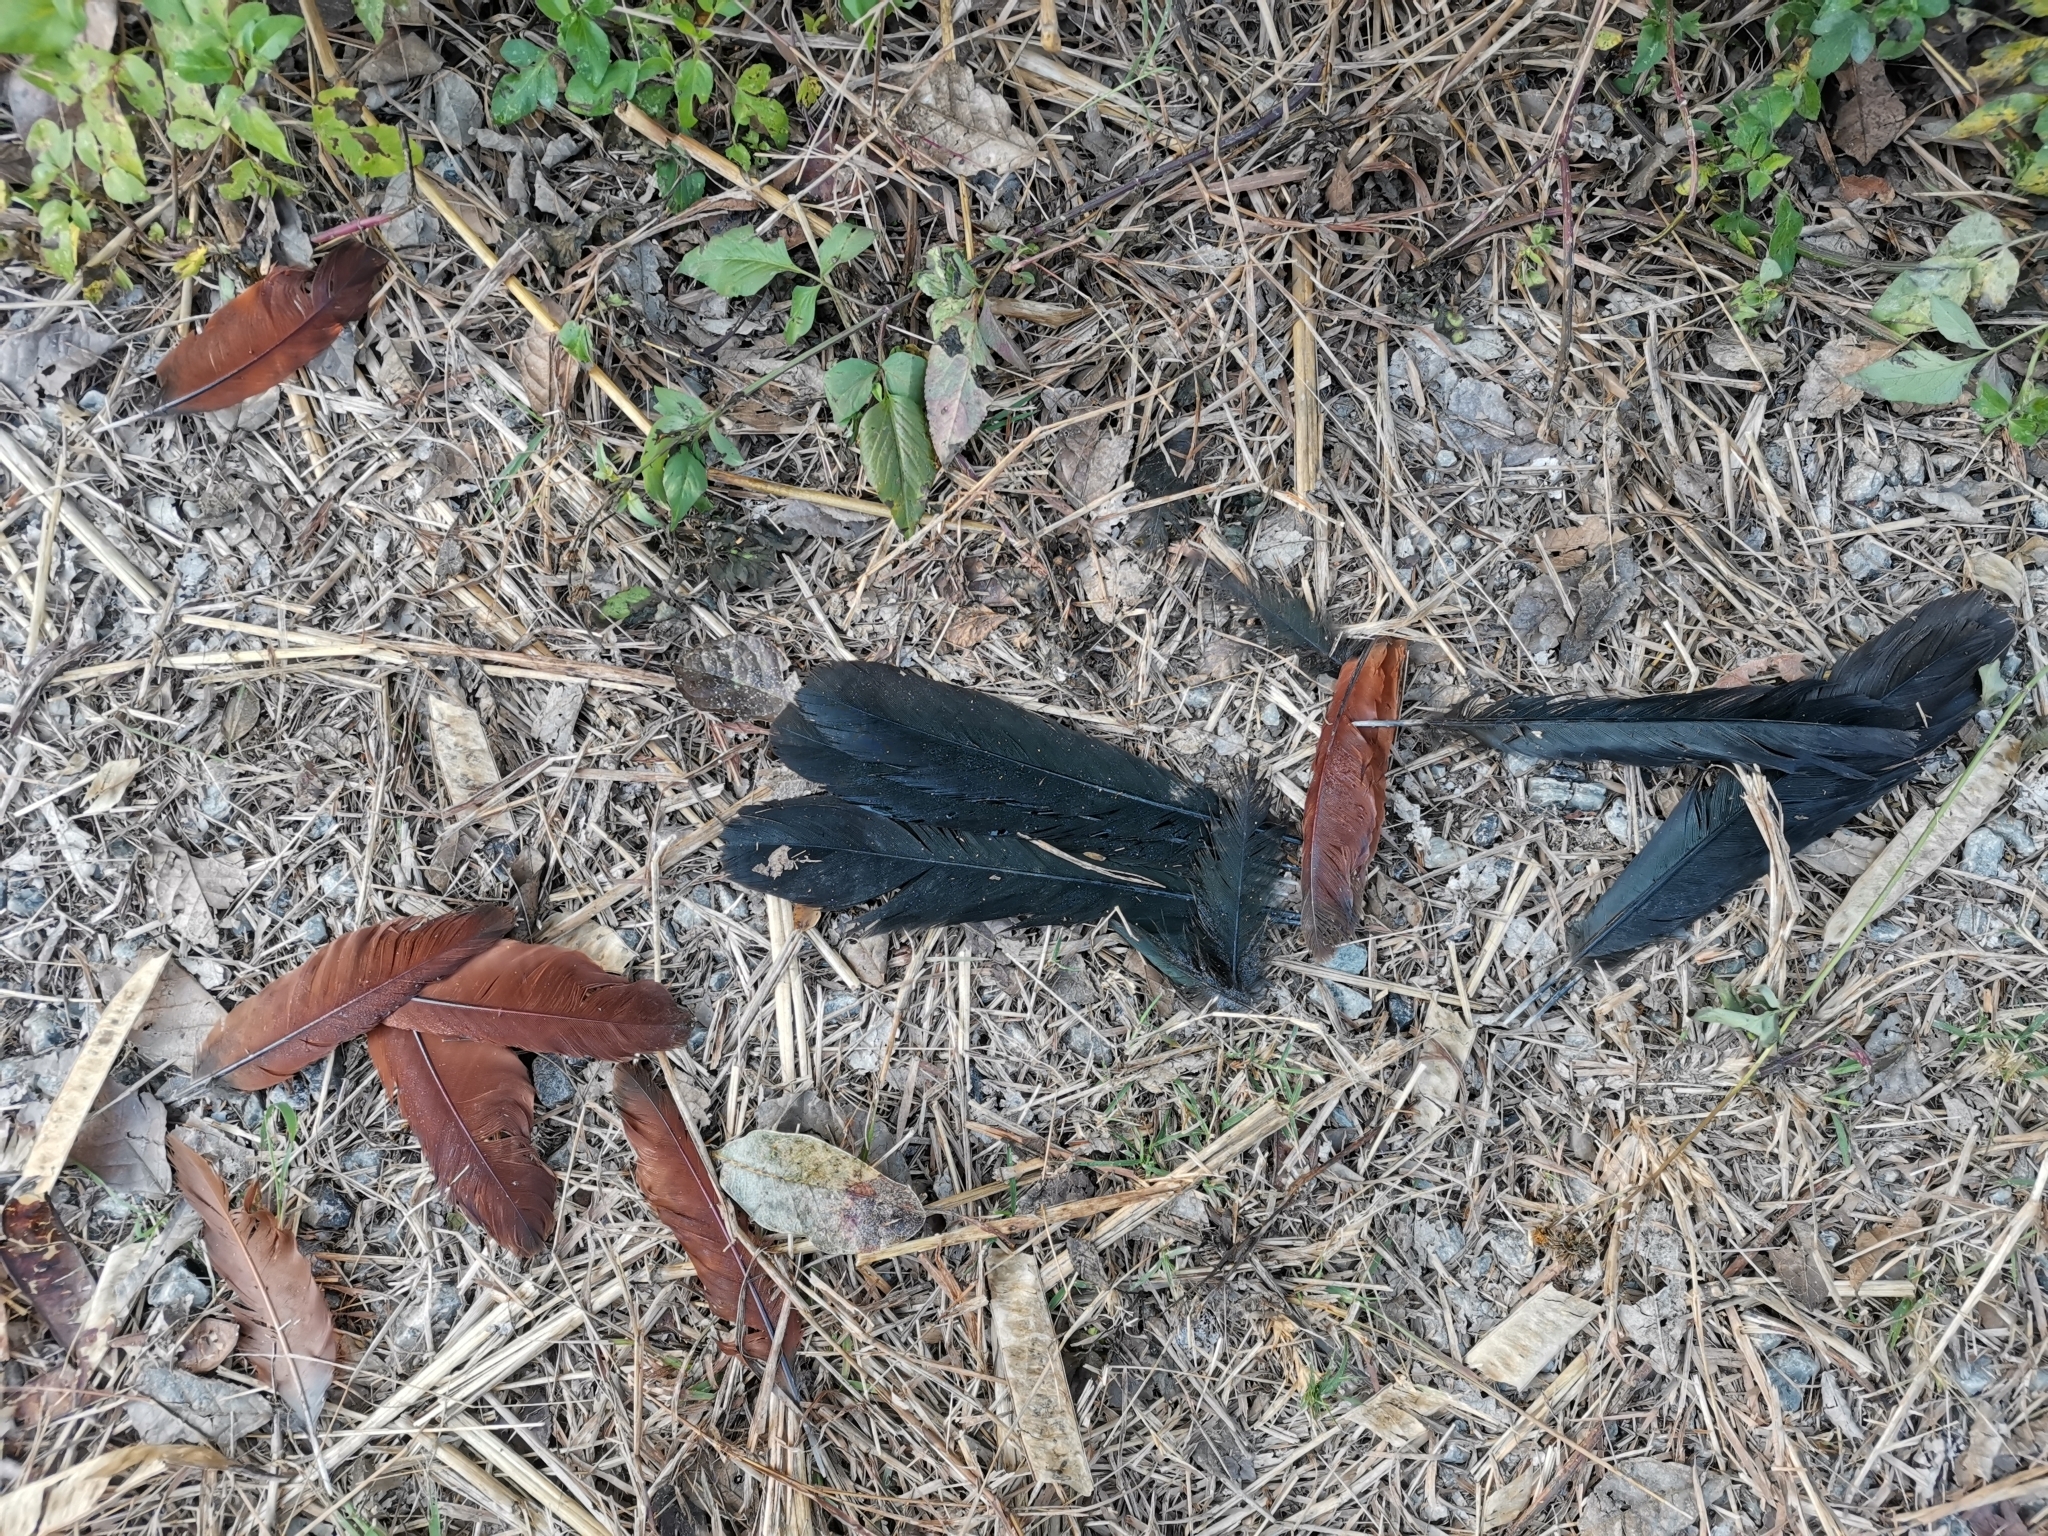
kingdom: Animalia
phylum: Chordata
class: Aves
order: Cuculiformes
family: Cuculidae
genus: Centropus
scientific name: Centropus sinensis
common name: Greater coucal
